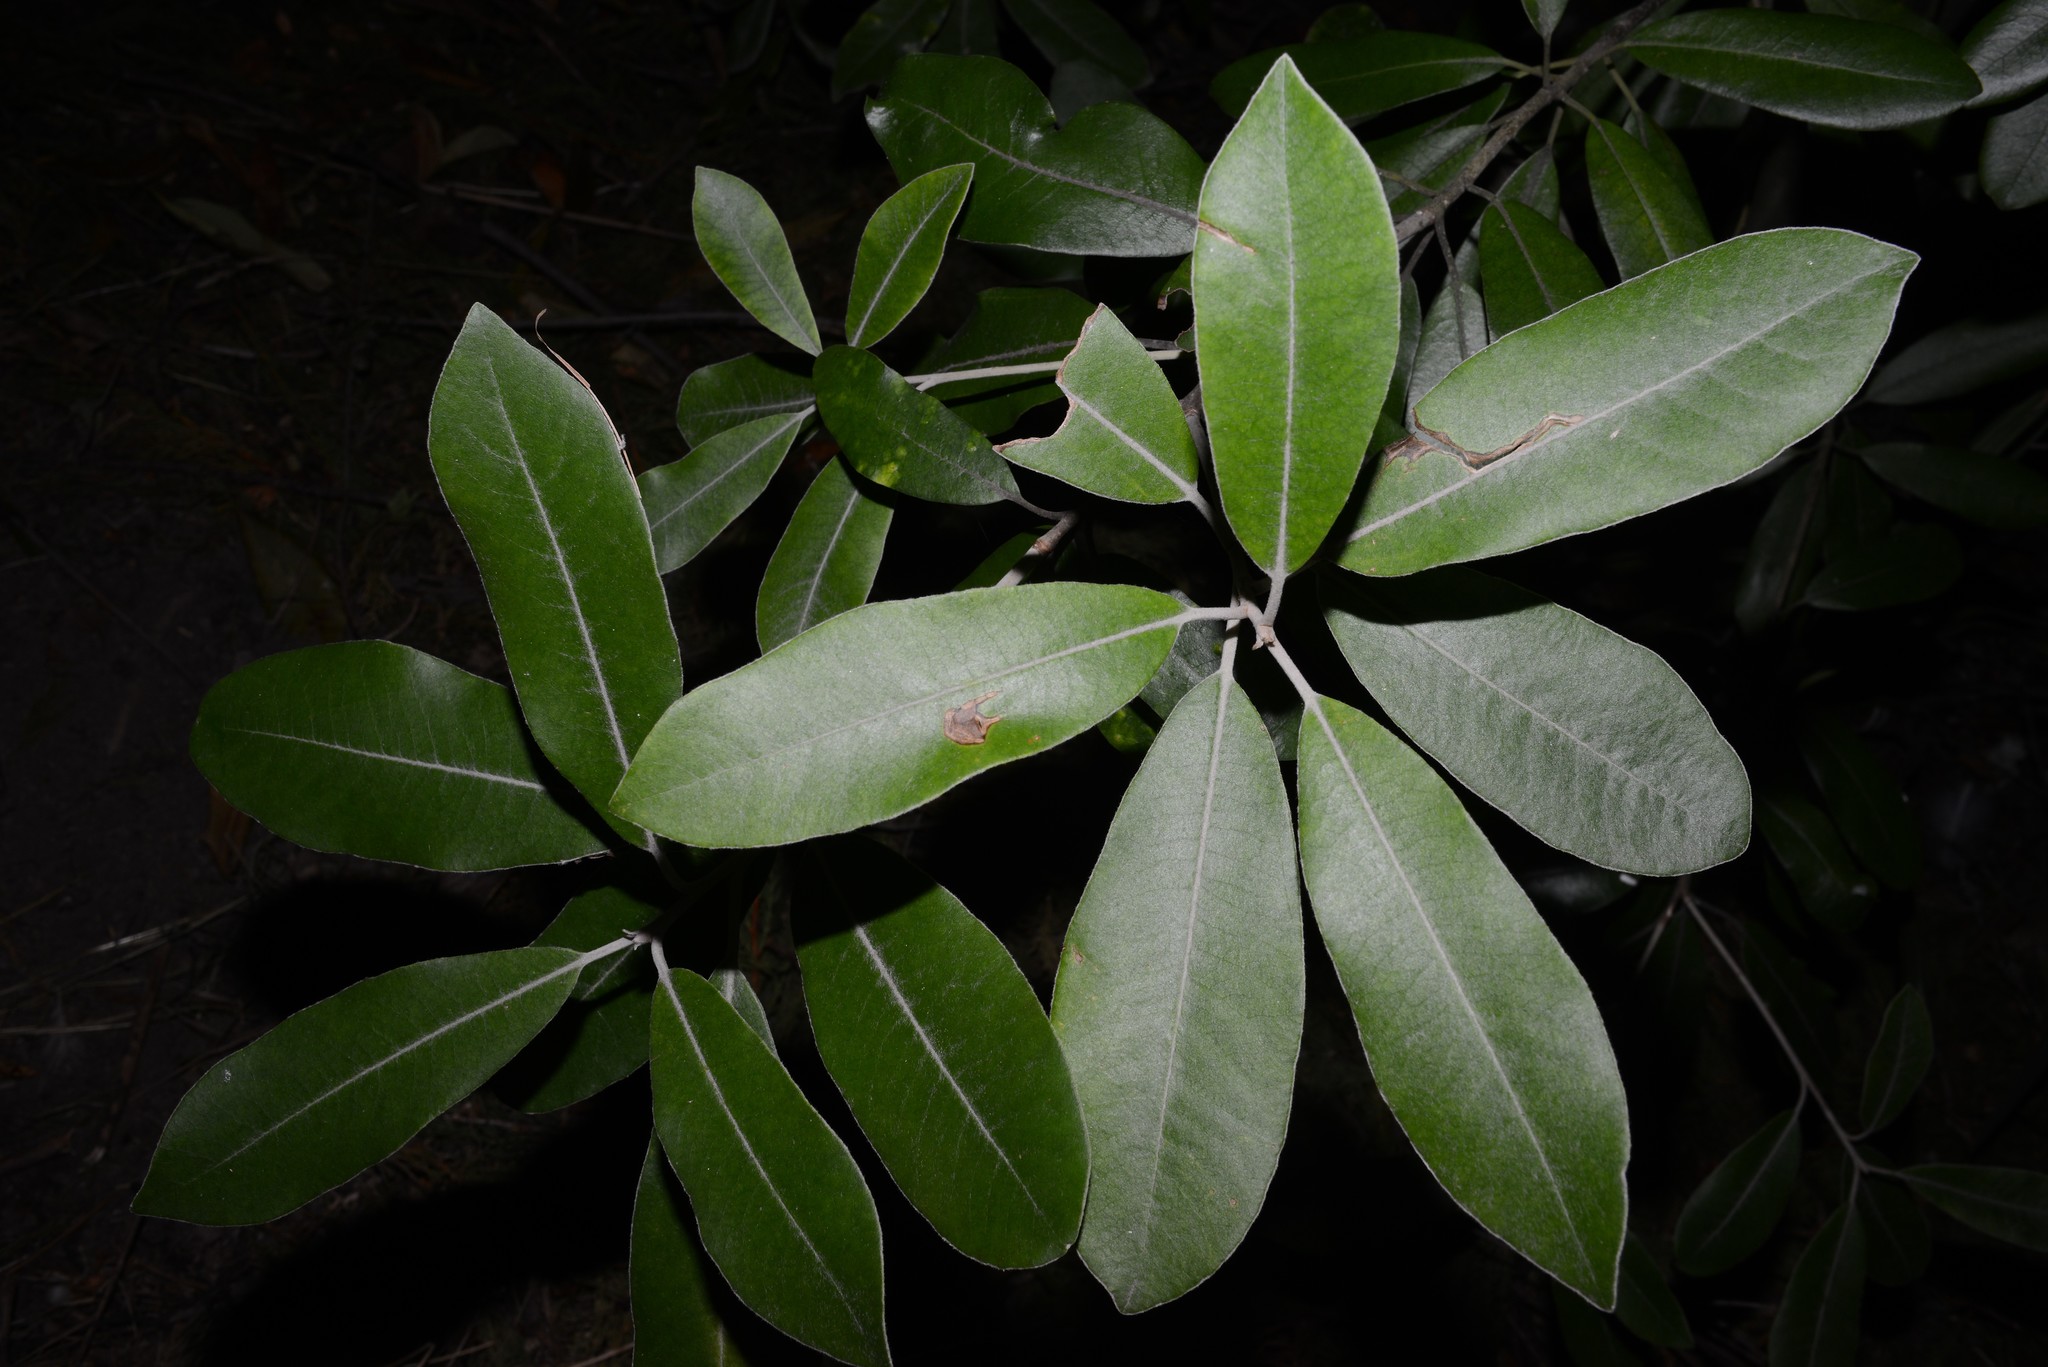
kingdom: Plantae
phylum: Tracheophyta
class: Magnoliopsida
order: Apiales
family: Pittosporaceae
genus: Pittosporum
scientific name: Pittosporum ralphii
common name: Ralph's desertwillow
